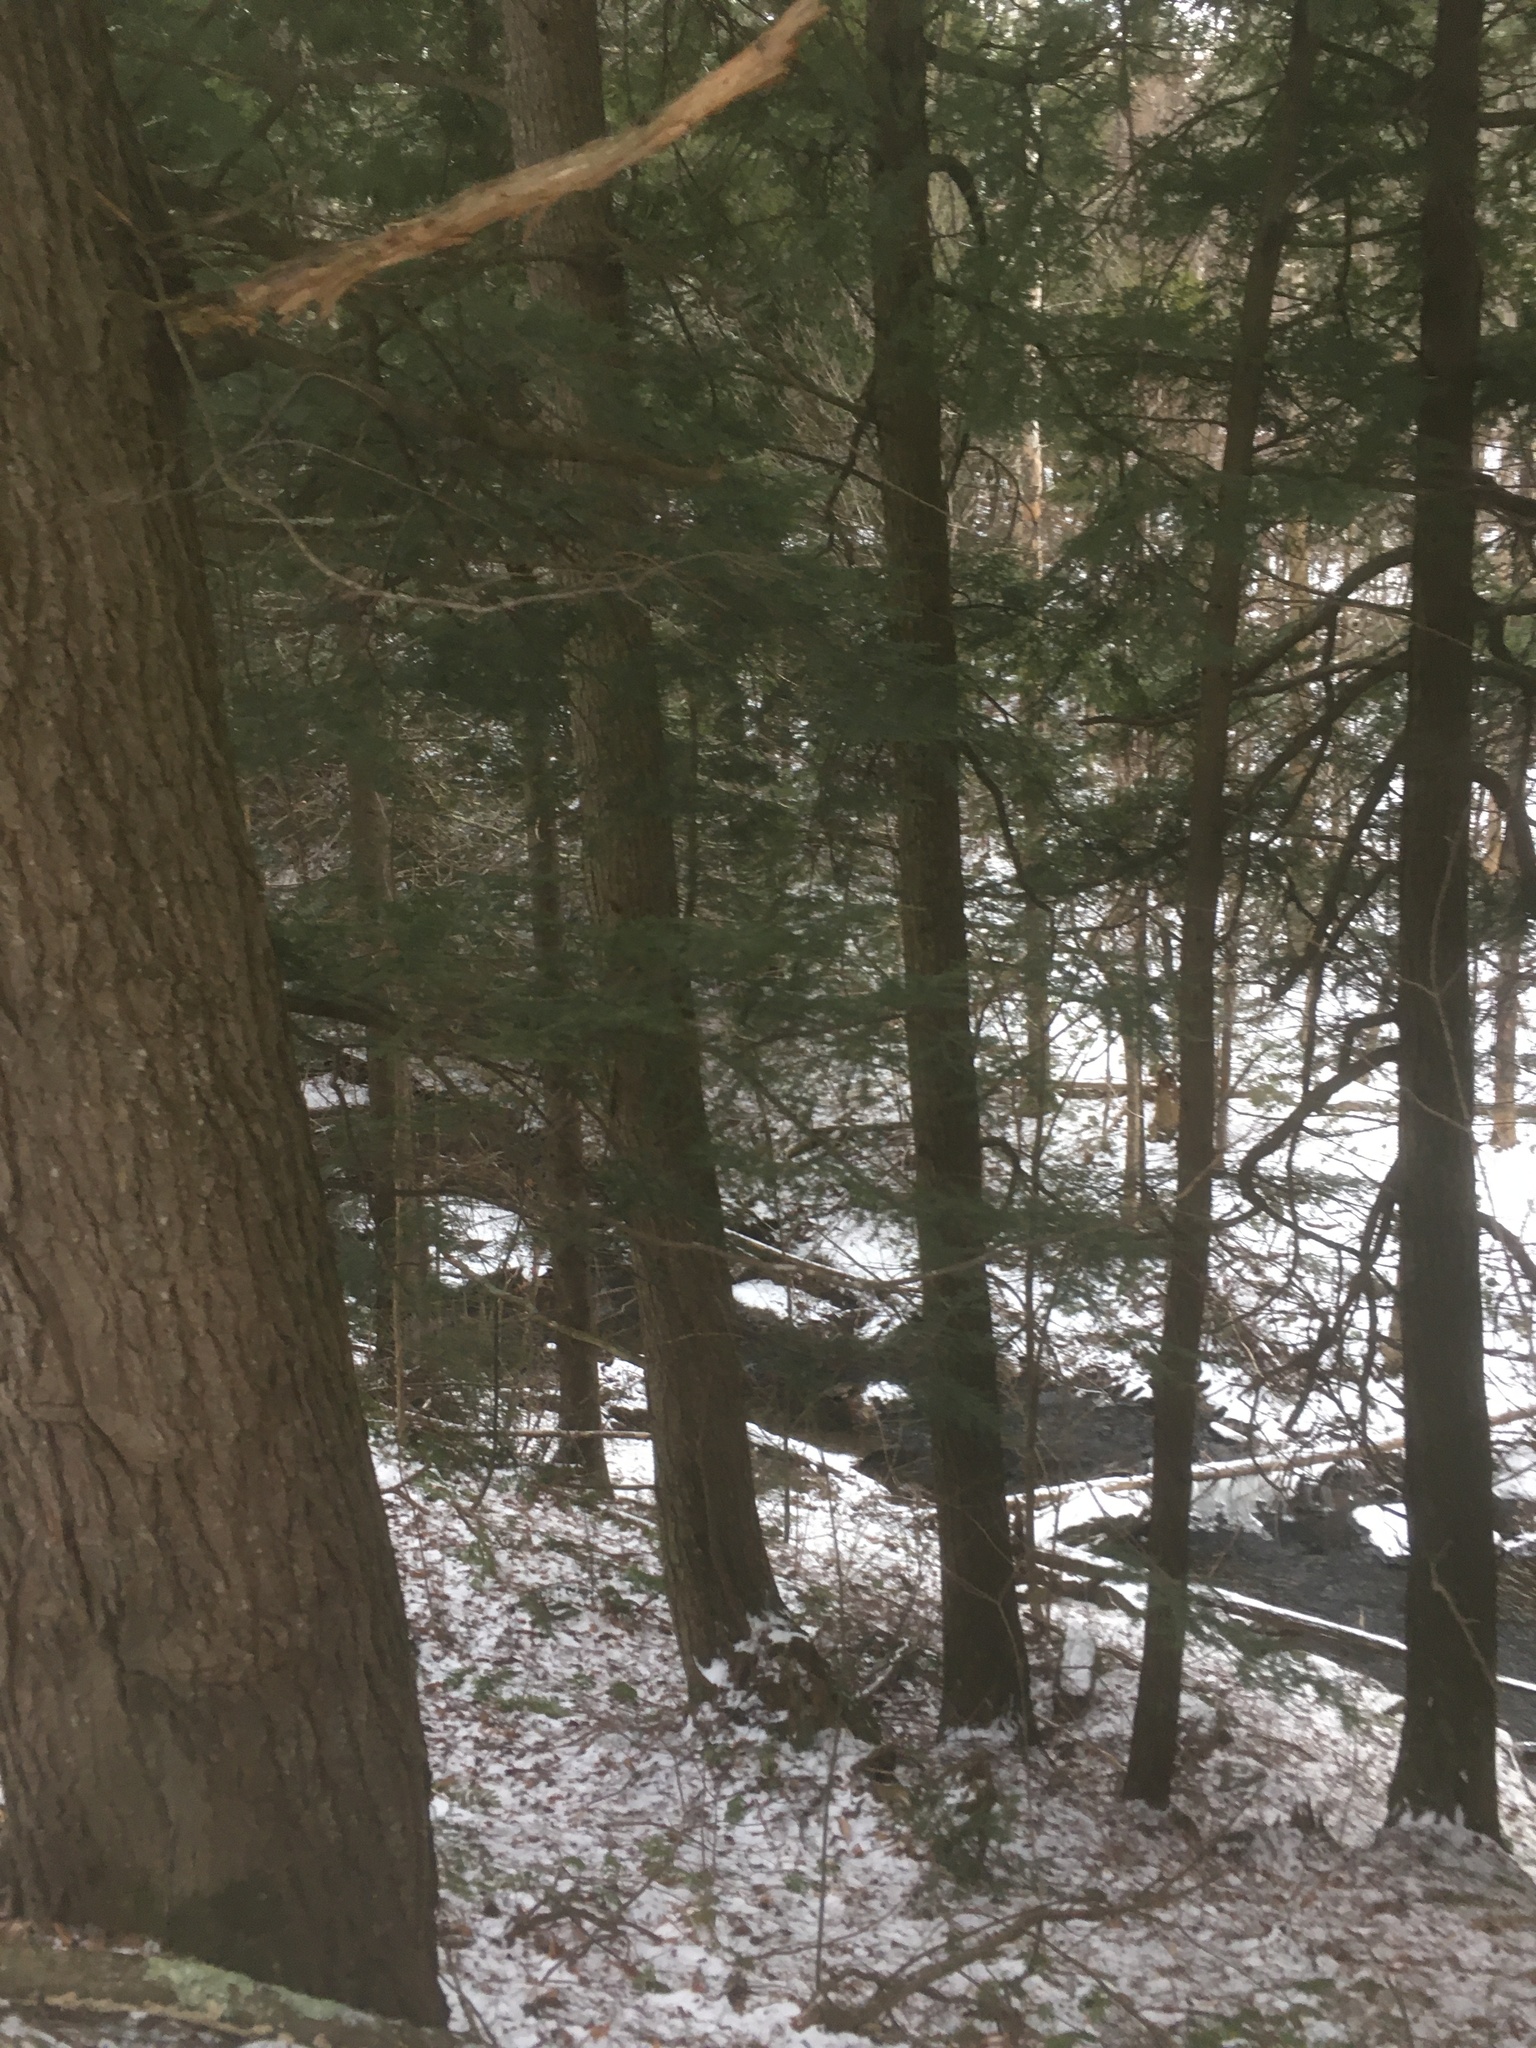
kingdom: Plantae
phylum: Tracheophyta
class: Pinopsida
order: Pinales
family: Pinaceae
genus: Tsuga
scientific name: Tsuga canadensis
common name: Eastern hemlock
